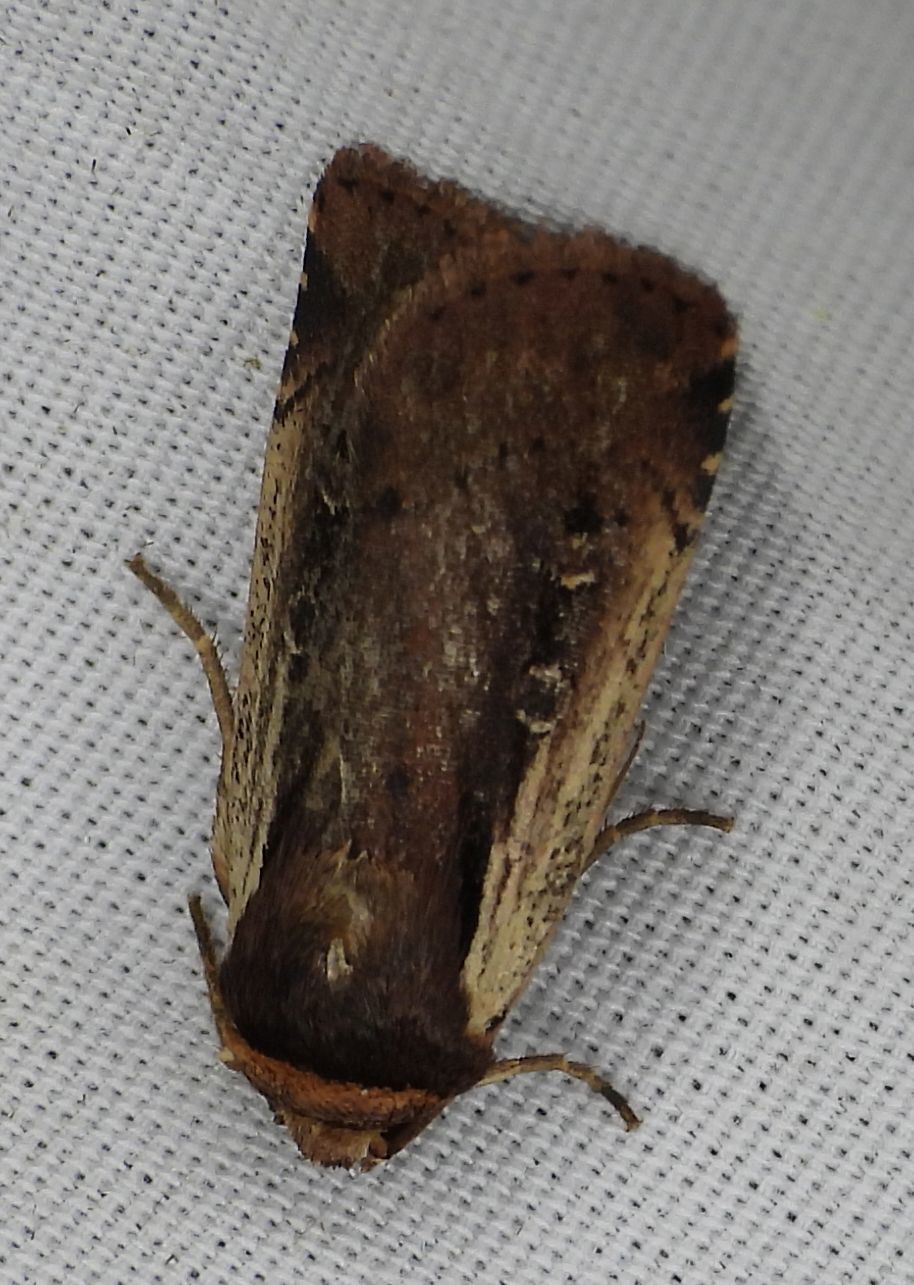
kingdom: Animalia
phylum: Arthropoda
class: Insecta
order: Lepidoptera
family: Noctuidae
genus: Ochropleura
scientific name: Ochropleura implecta
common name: Flame-shouldered dart
